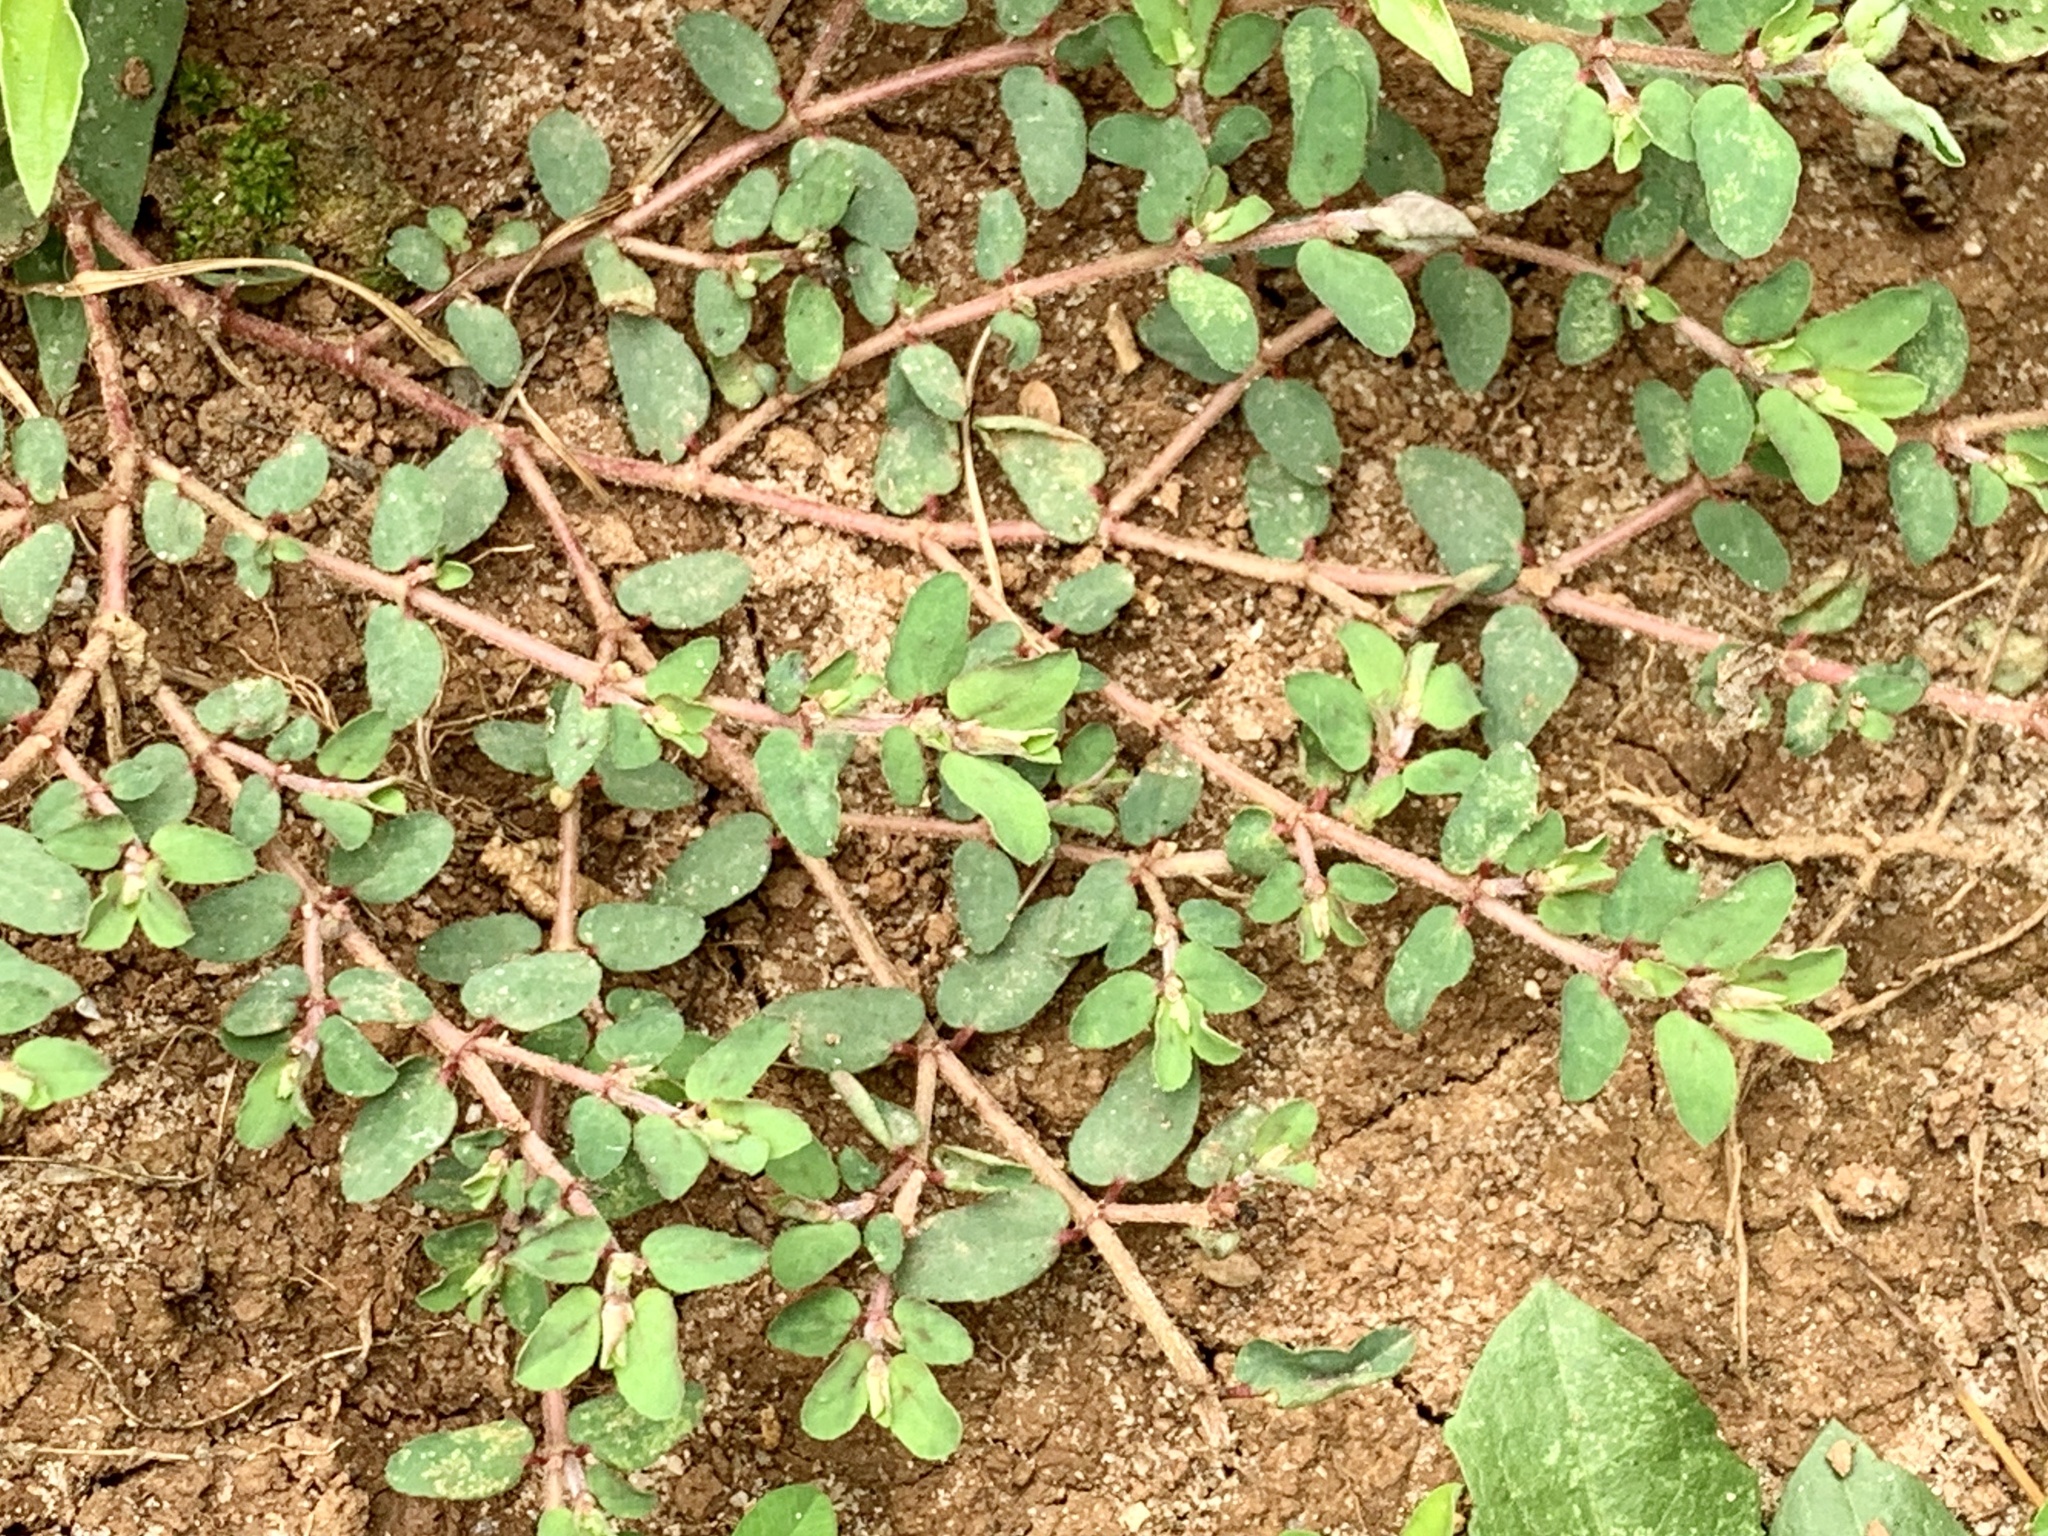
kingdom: Plantae
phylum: Tracheophyta
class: Magnoliopsida
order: Malpighiales
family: Euphorbiaceae
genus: Euphorbia
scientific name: Euphorbia maculata
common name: Spotted spurge
